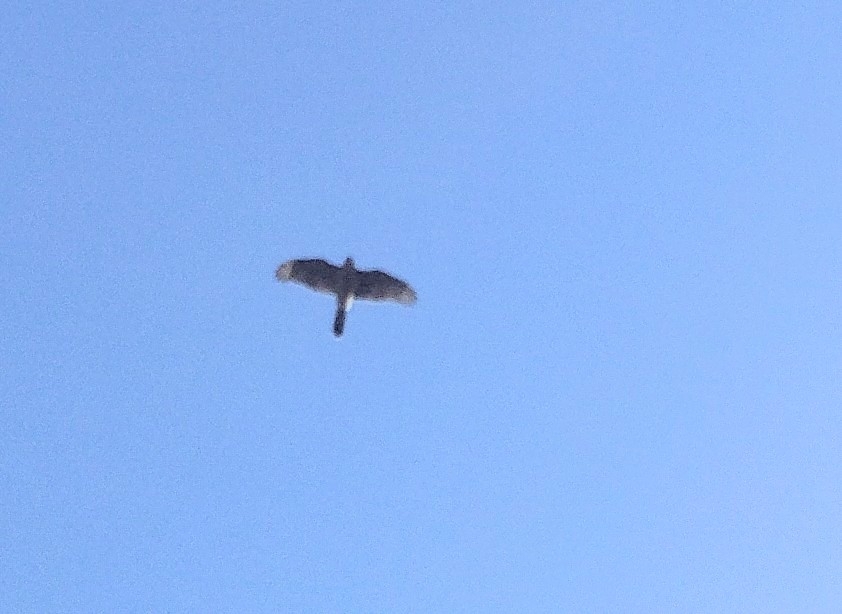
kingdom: Animalia
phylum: Chordata
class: Aves
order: Accipitriformes
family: Accipitridae
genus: Accipiter
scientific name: Accipiter cooperii
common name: Cooper's hawk
